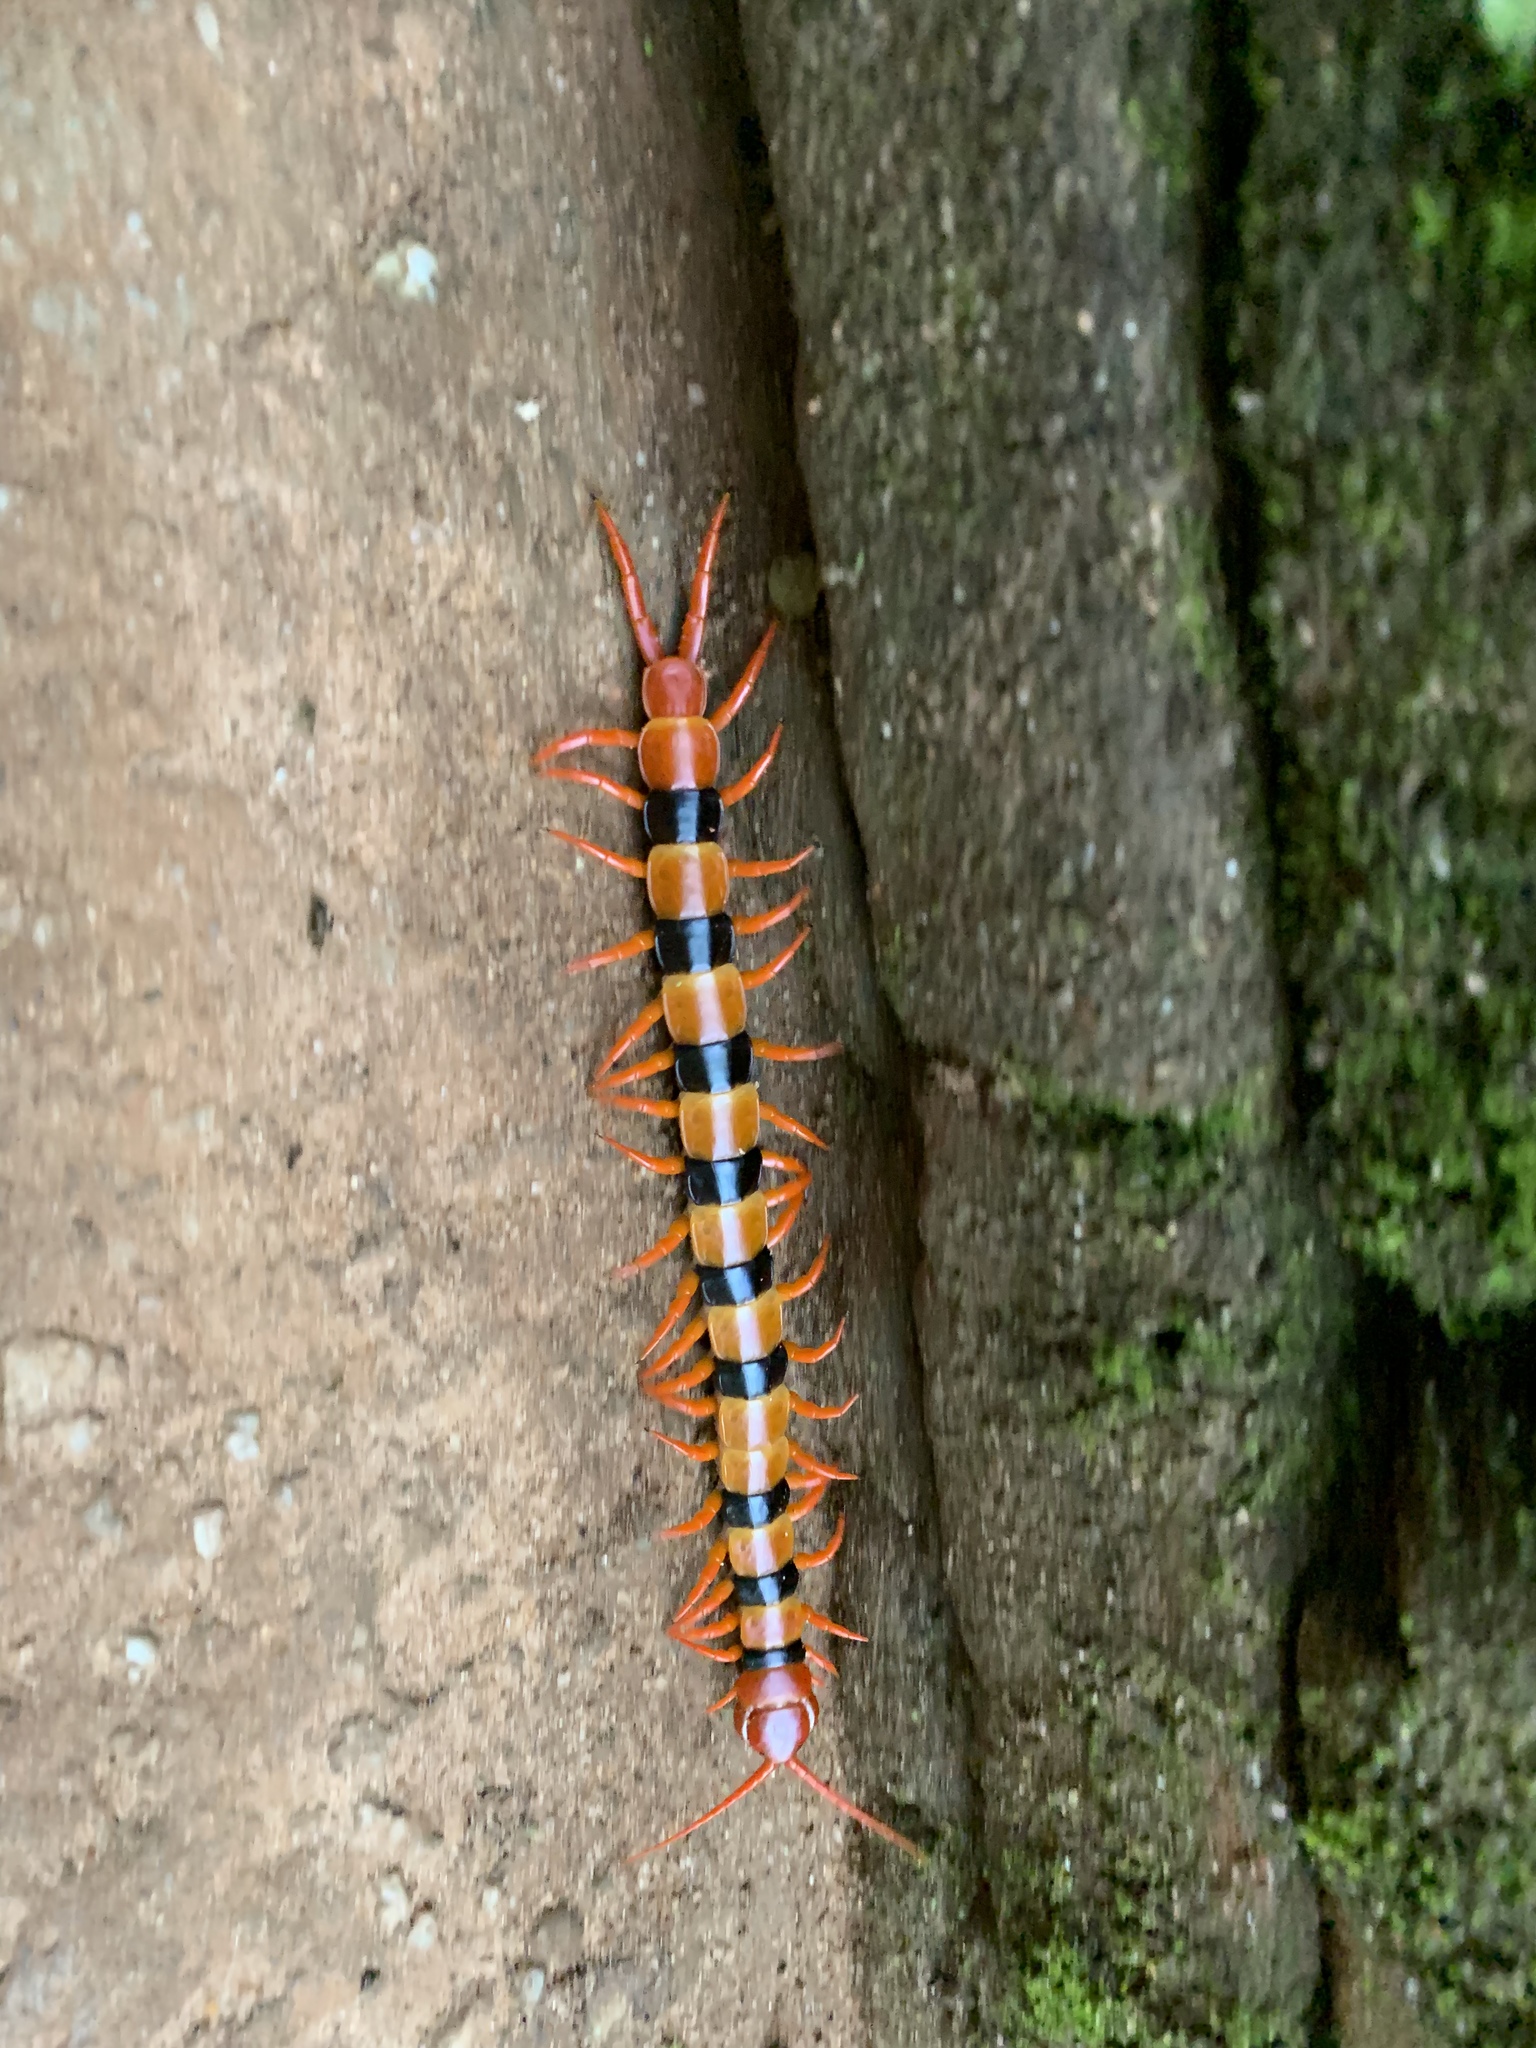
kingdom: Animalia
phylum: Arthropoda
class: Chilopoda
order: Scolopendromorpha
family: Scolopendridae
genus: Scolopendra
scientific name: Scolopendra hardwickei
